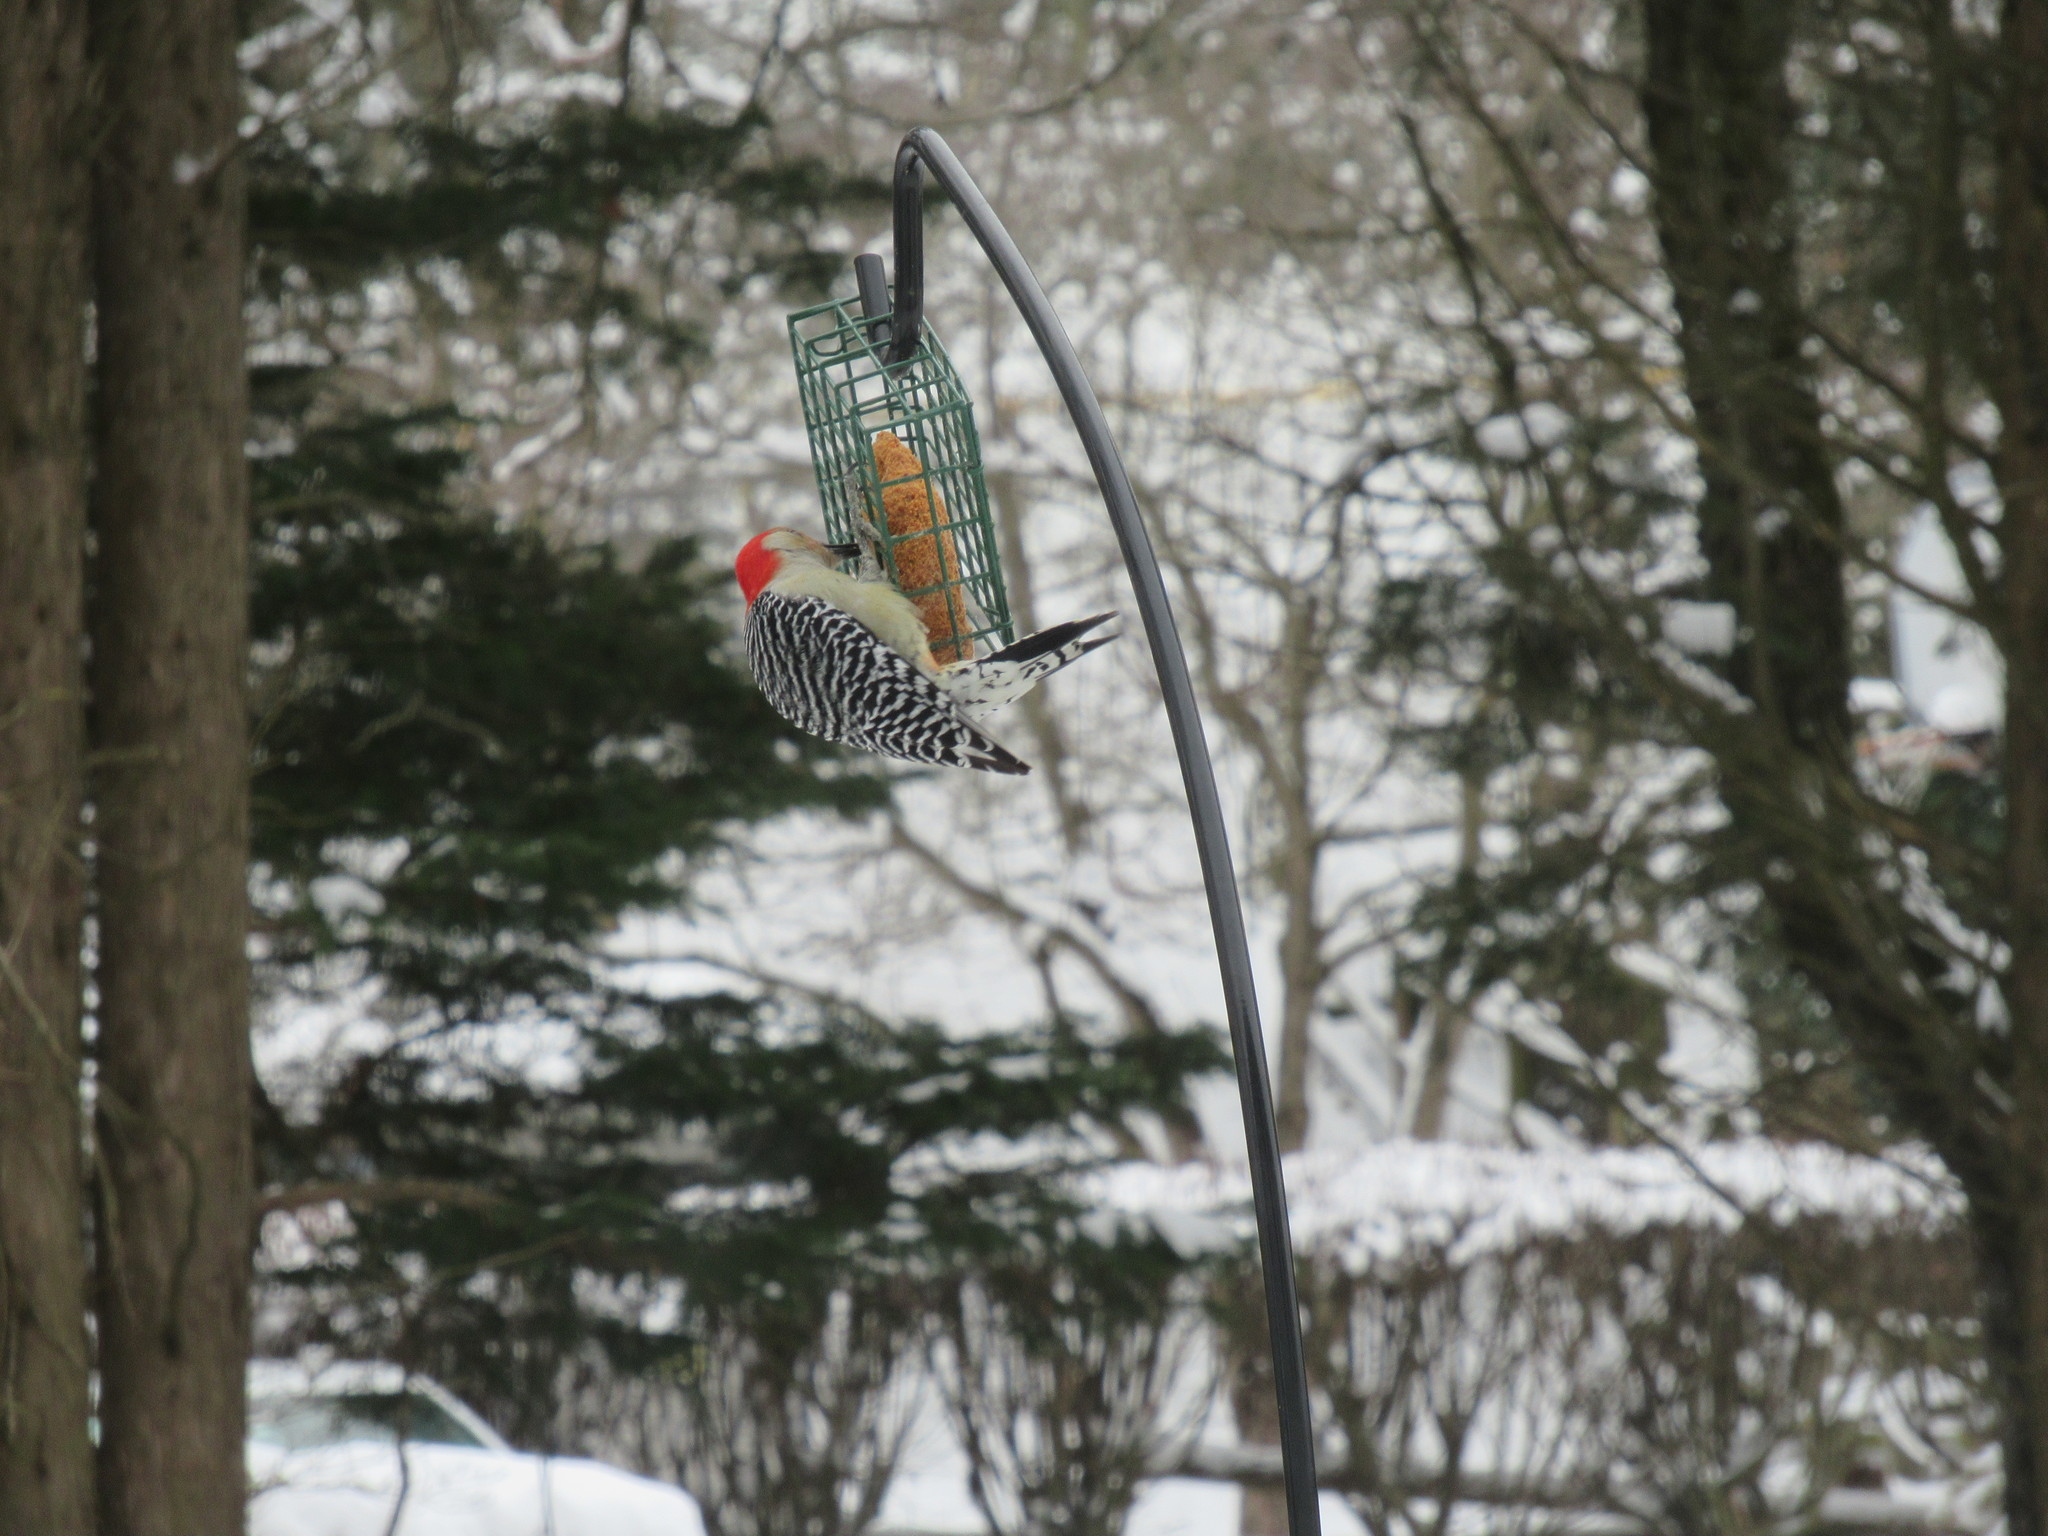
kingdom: Animalia
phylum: Chordata
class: Aves
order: Piciformes
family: Picidae
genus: Melanerpes
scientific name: Melanerpes carolinus
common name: Red-bellied woodpecker
